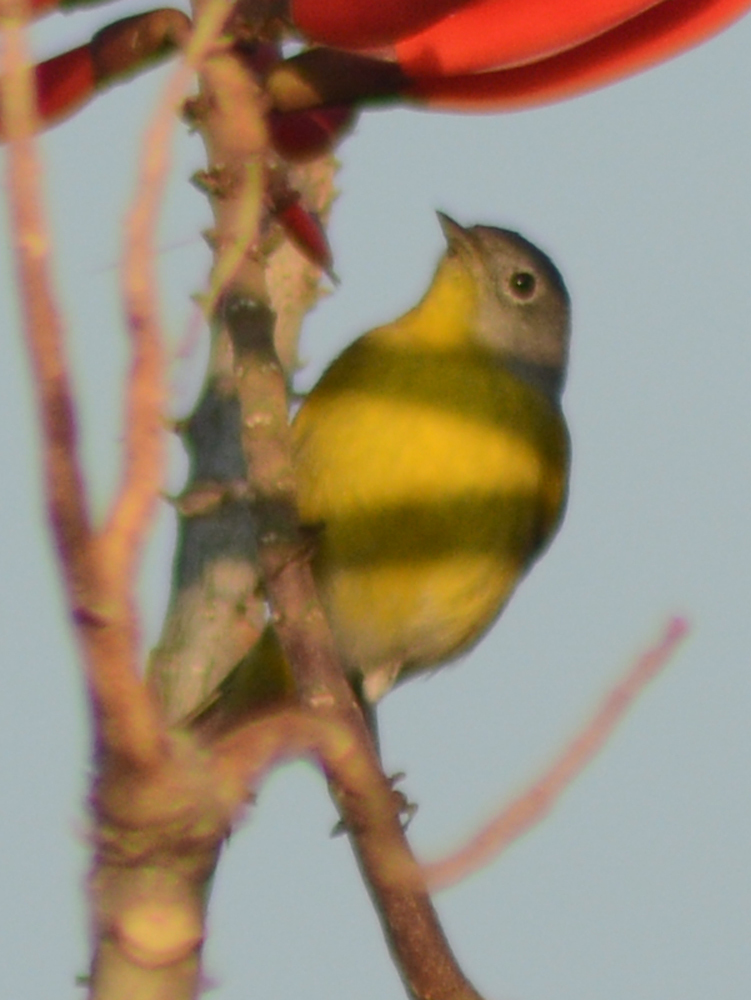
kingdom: Animalia
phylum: Chordata
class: Aves
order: Passeriformes
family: Parulidae
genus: Leiothlypis
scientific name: Leiothlypis ruficapilla
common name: Nashville warbler
